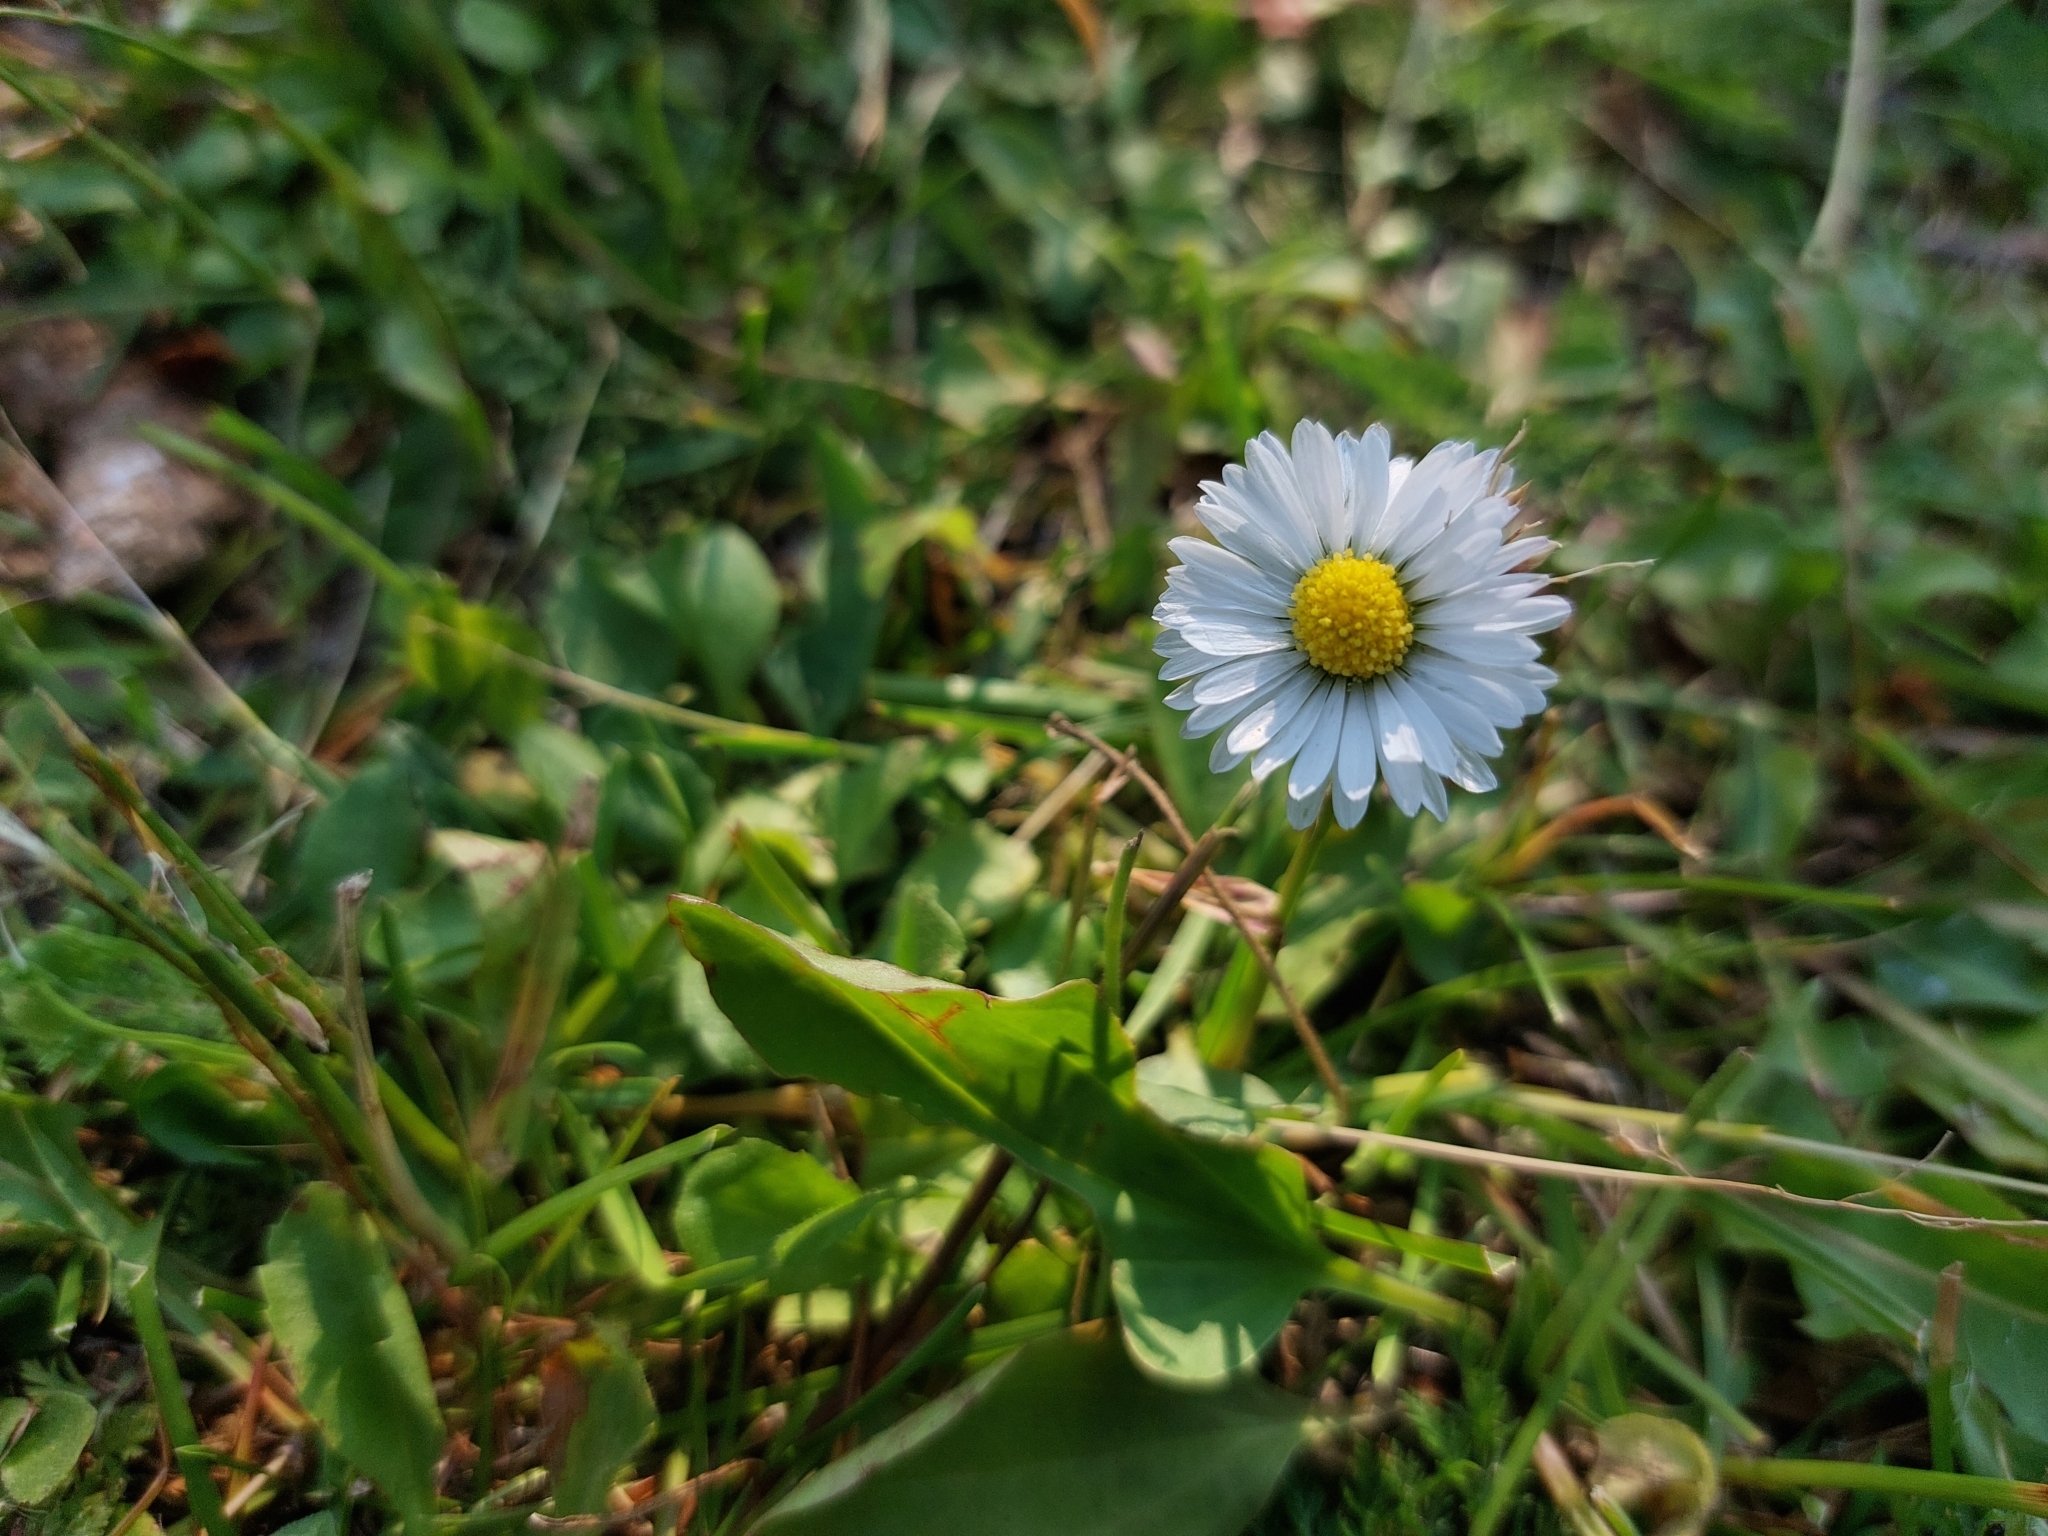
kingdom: Plantae
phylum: Tracheophyta
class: Magnoliopsida
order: Asterales
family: Asteraceae
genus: Bellis
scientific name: Bellis perennis
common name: Lawndaisy
